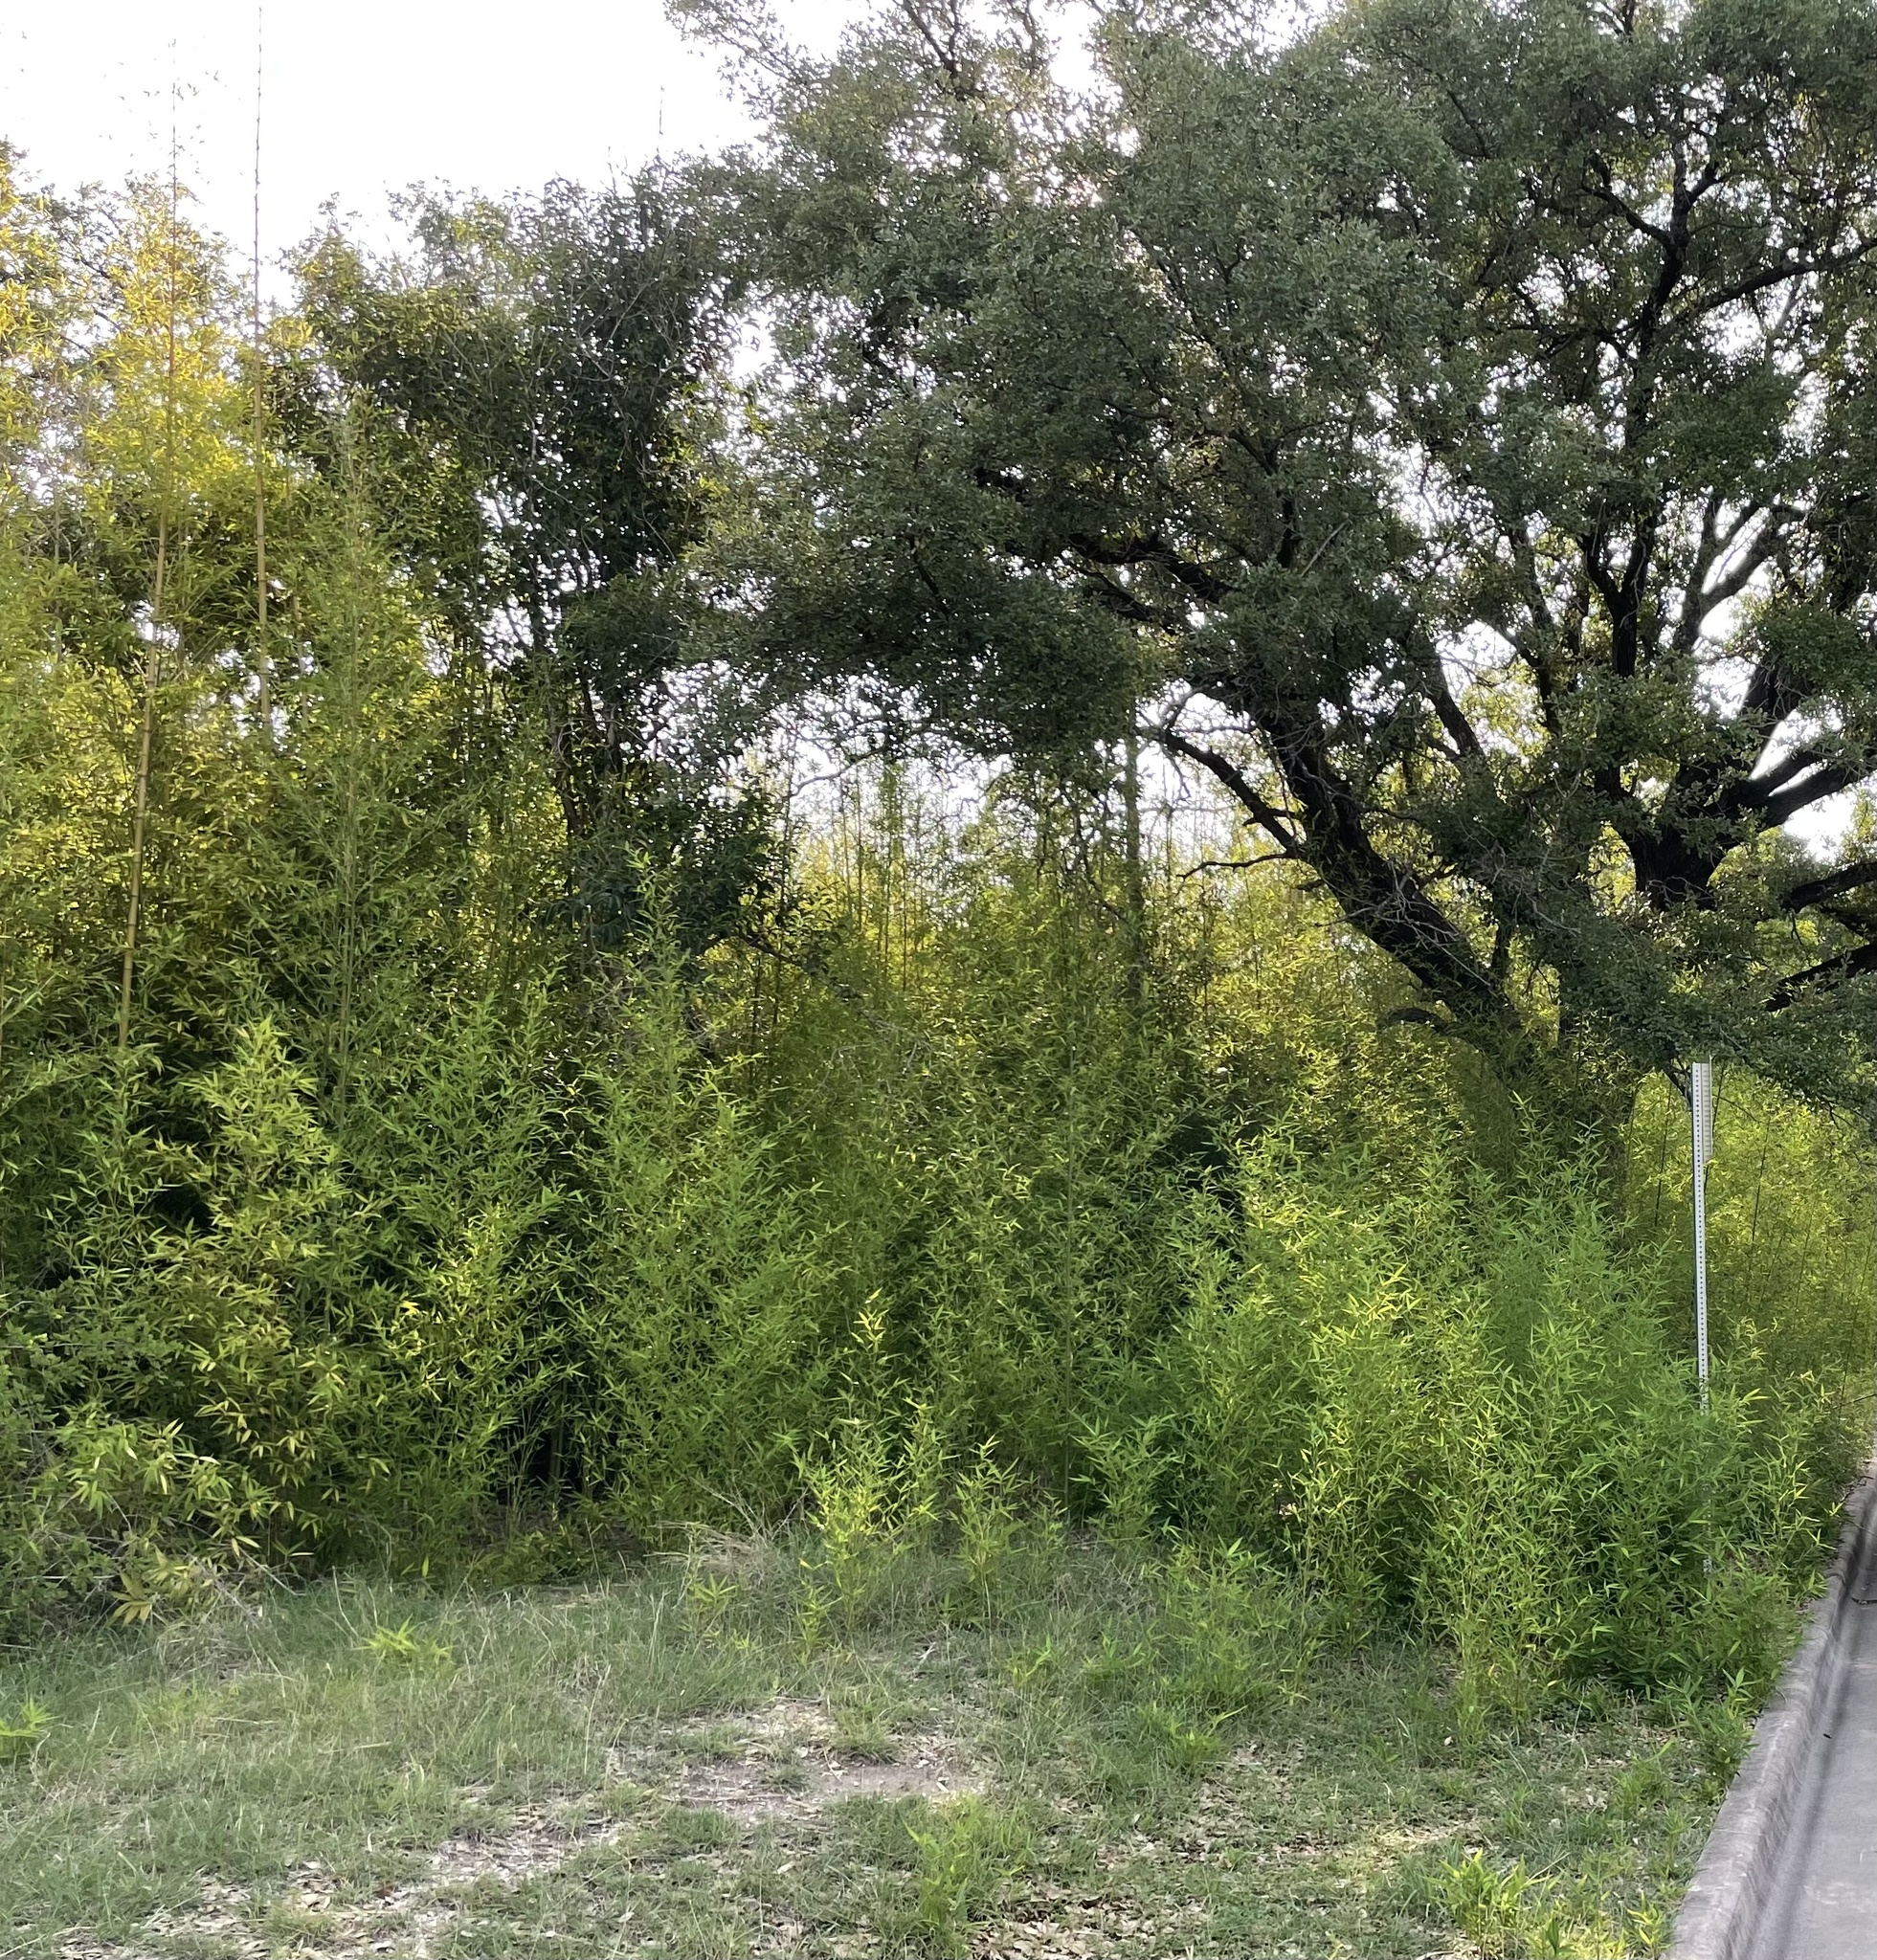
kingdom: Plantae
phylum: Tracheophyta
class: Liliopsida
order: Poales
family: Poaceae
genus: Phyllostachys
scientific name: Phyllostachys aurea
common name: Golden bamboo
